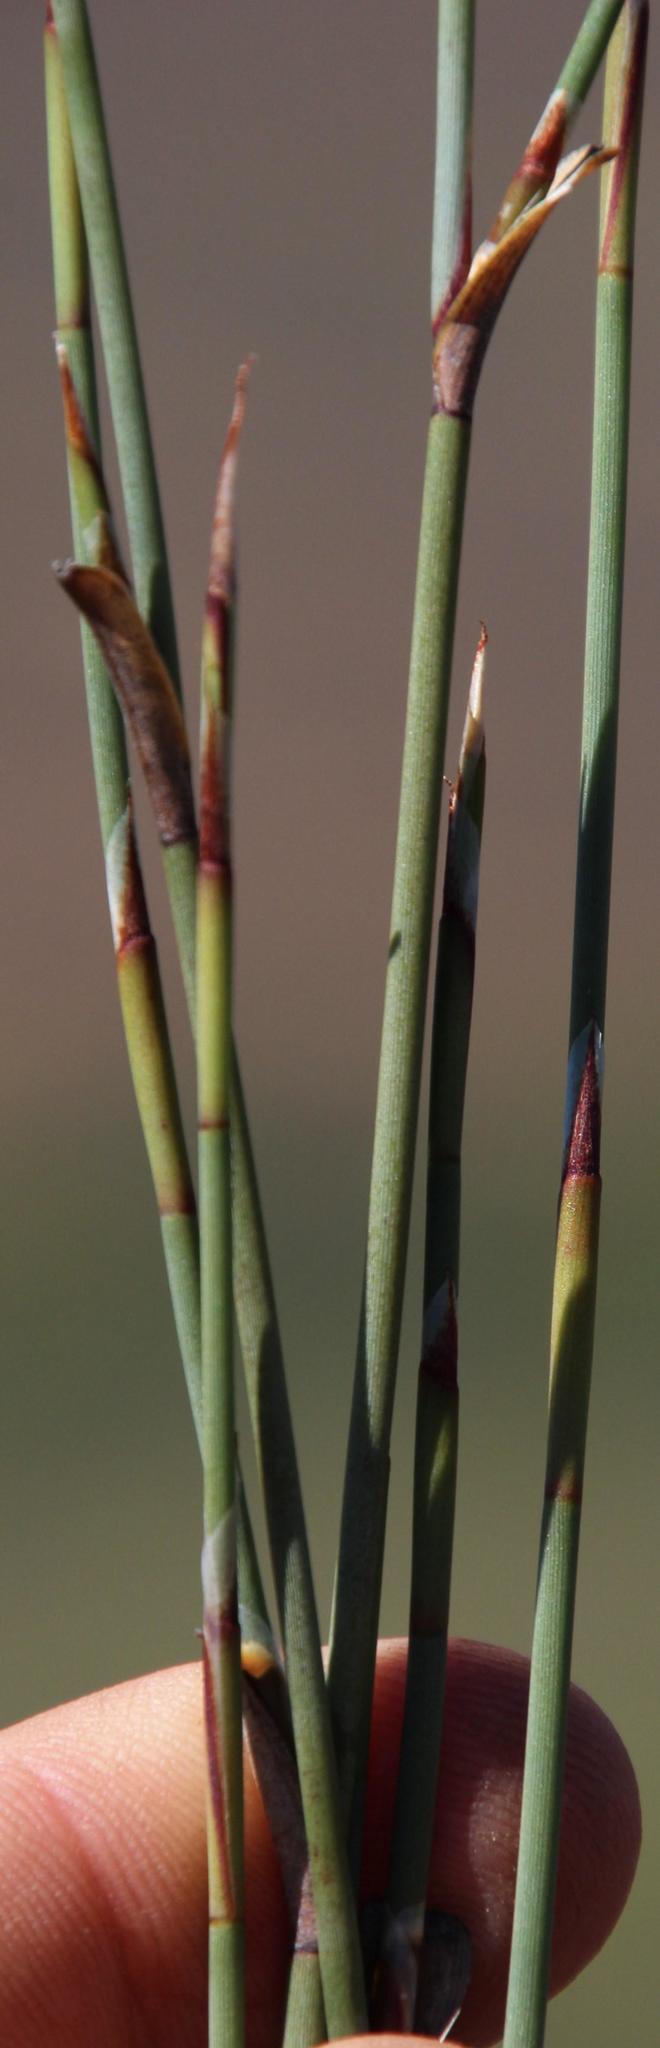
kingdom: Plantae
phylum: Tracheophyta
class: Liliopsida
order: Poales
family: Restionaceae
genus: Willdenowia
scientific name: Willdenowia incurvata
